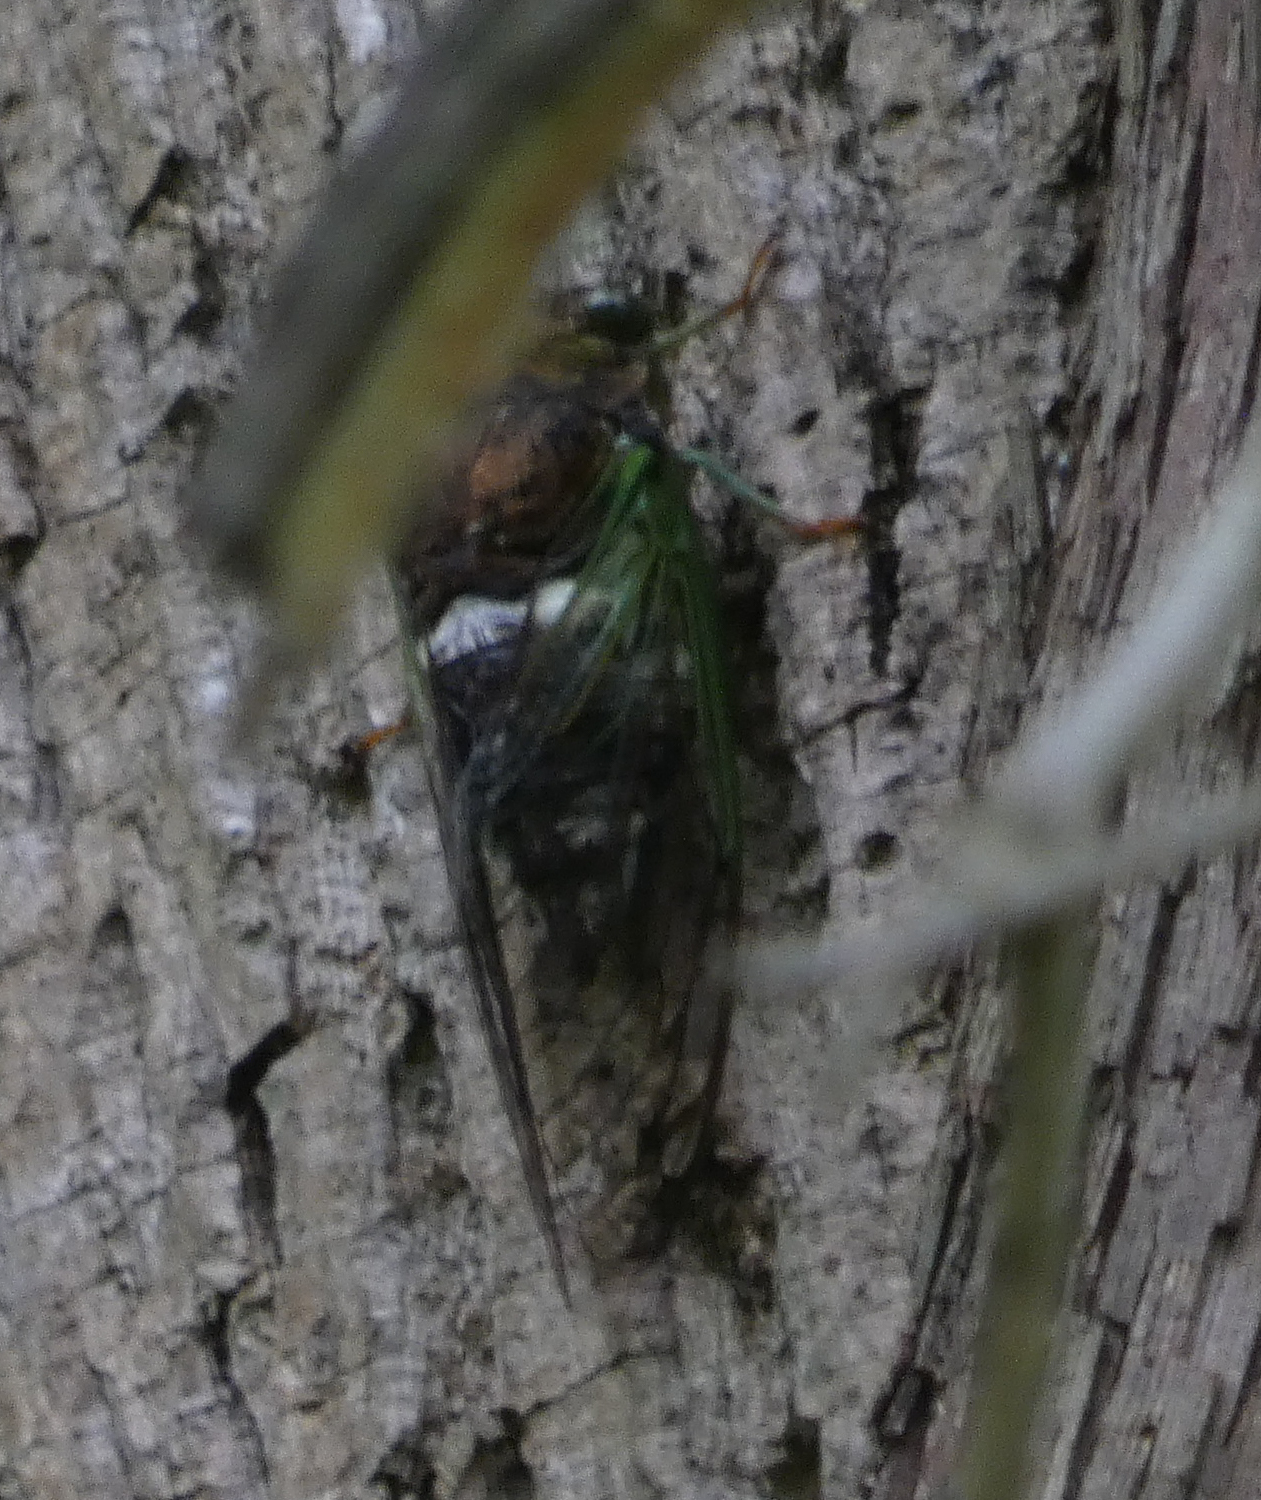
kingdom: Animalia
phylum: Arthropoda
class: Insecta
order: Hemiptera
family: Cicadidae
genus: Neotibicen
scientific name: Neotibicen tibicen
